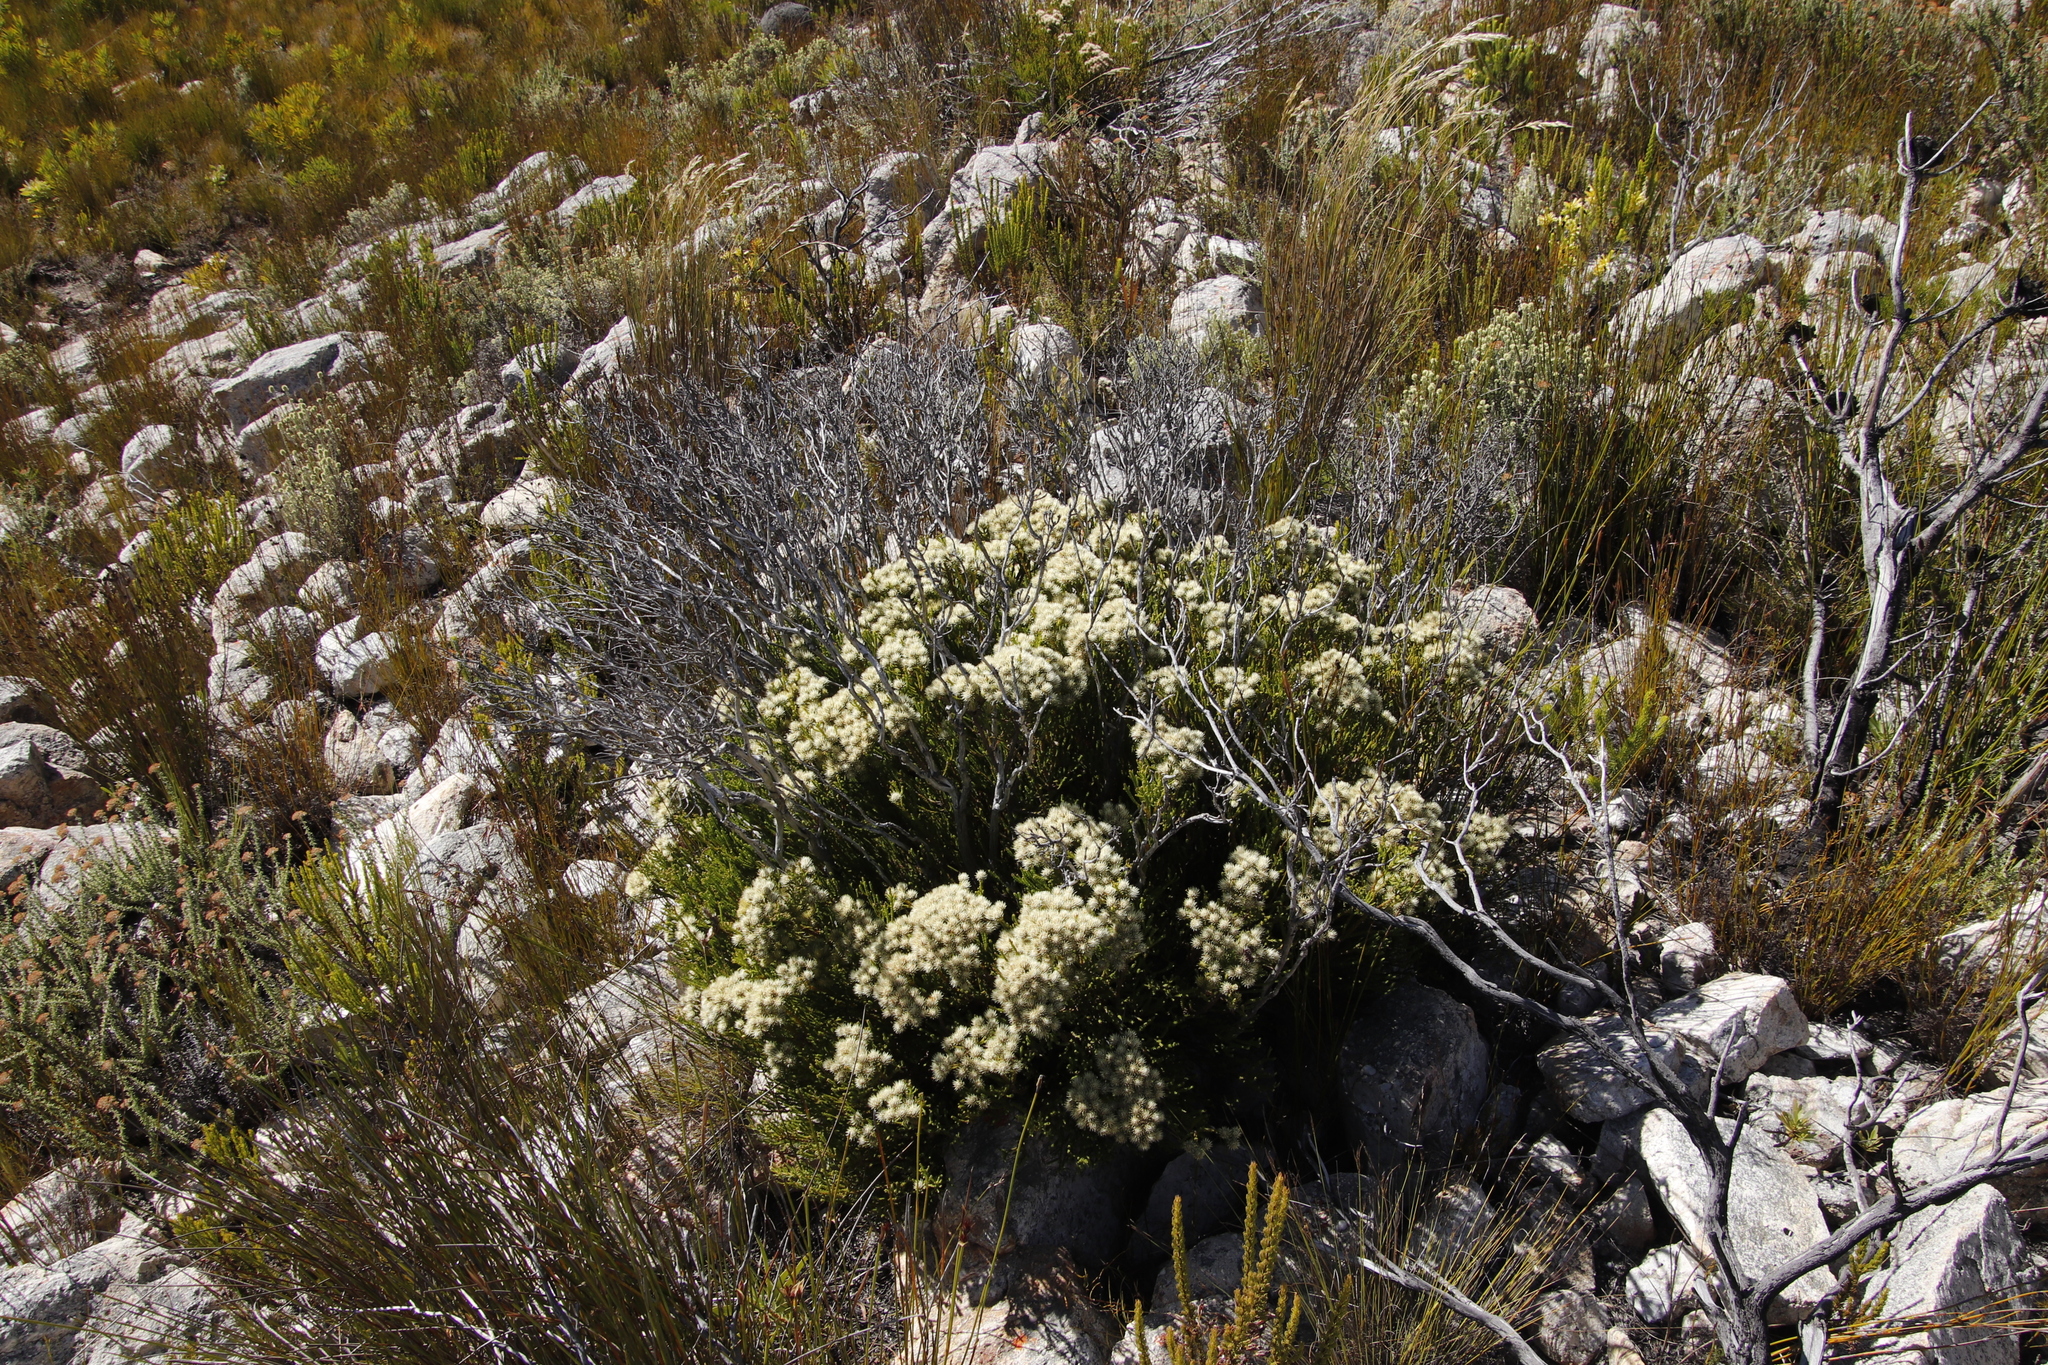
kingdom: Plantae
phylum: Tracheophyta
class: Magnoliopsida
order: Bruniales
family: Bruniaceae
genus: Brunia
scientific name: Brunia paleacea
